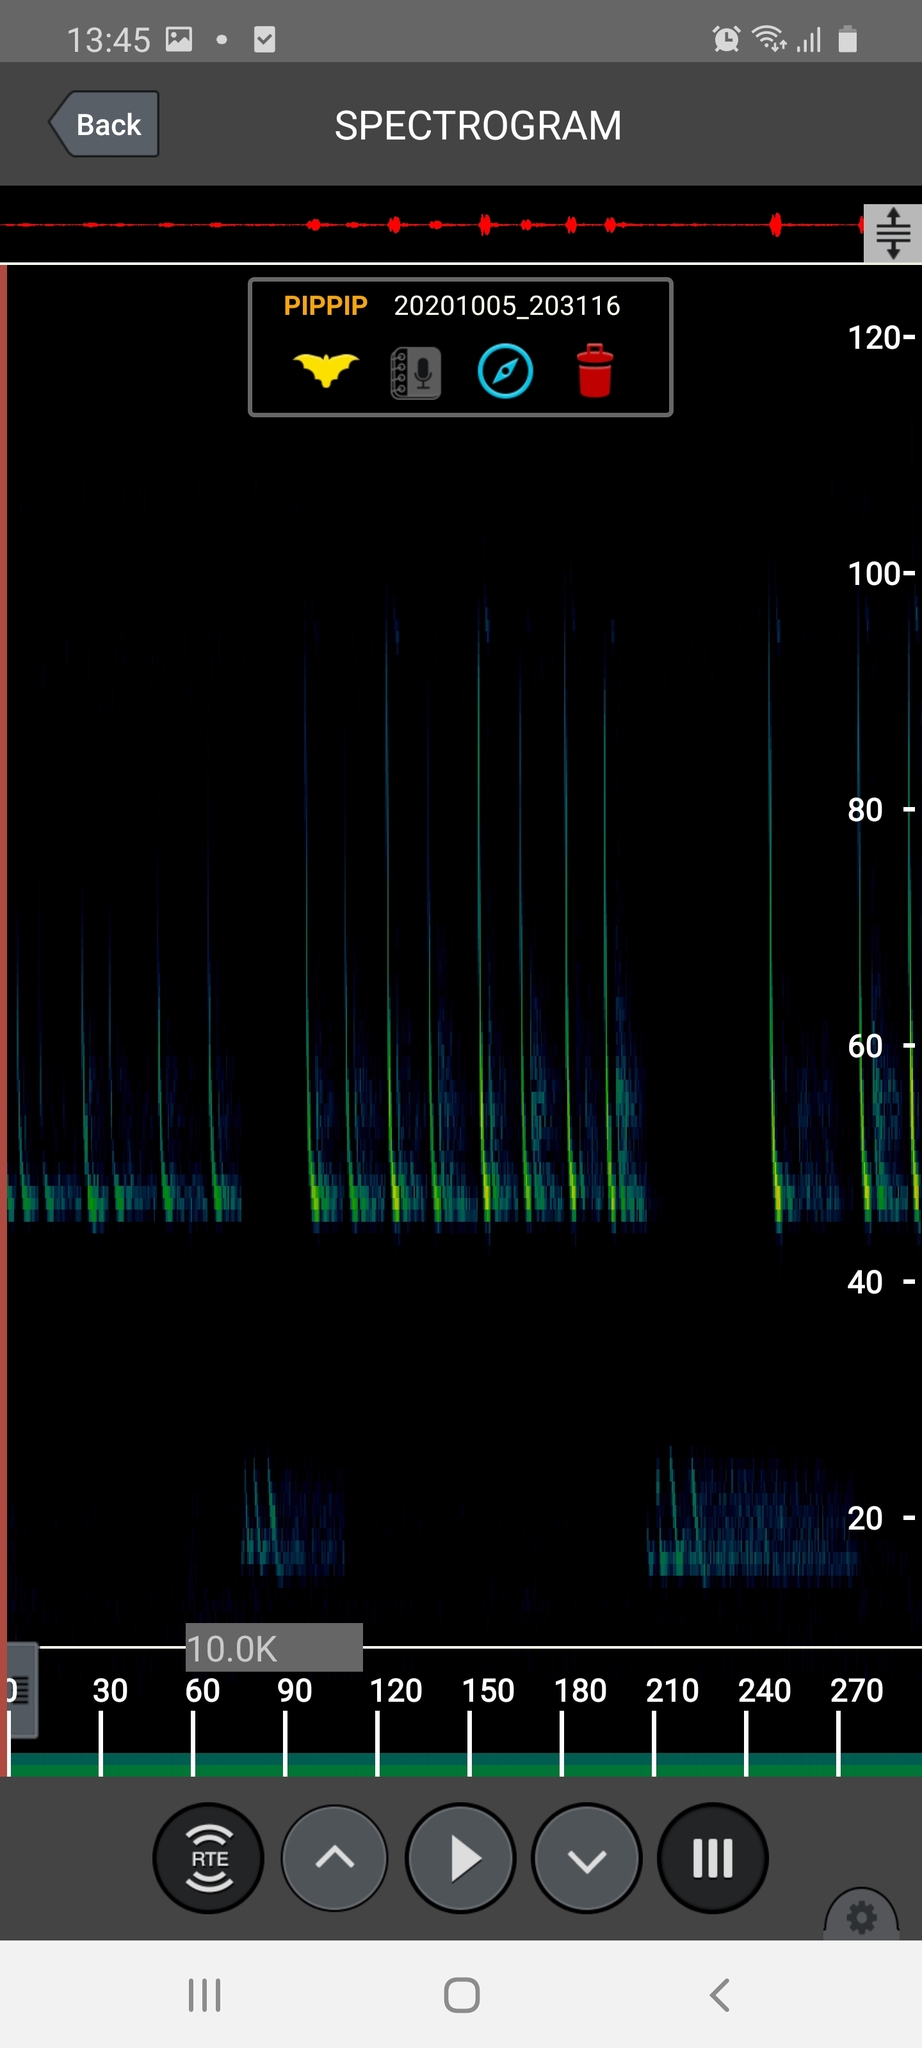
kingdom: Animalia
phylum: Chordata
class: Mammalia
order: Chiroptera
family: Vespertilionidae
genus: Pipistrellus
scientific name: Pipistrellus pipistrellus
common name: Common pipistrelle
